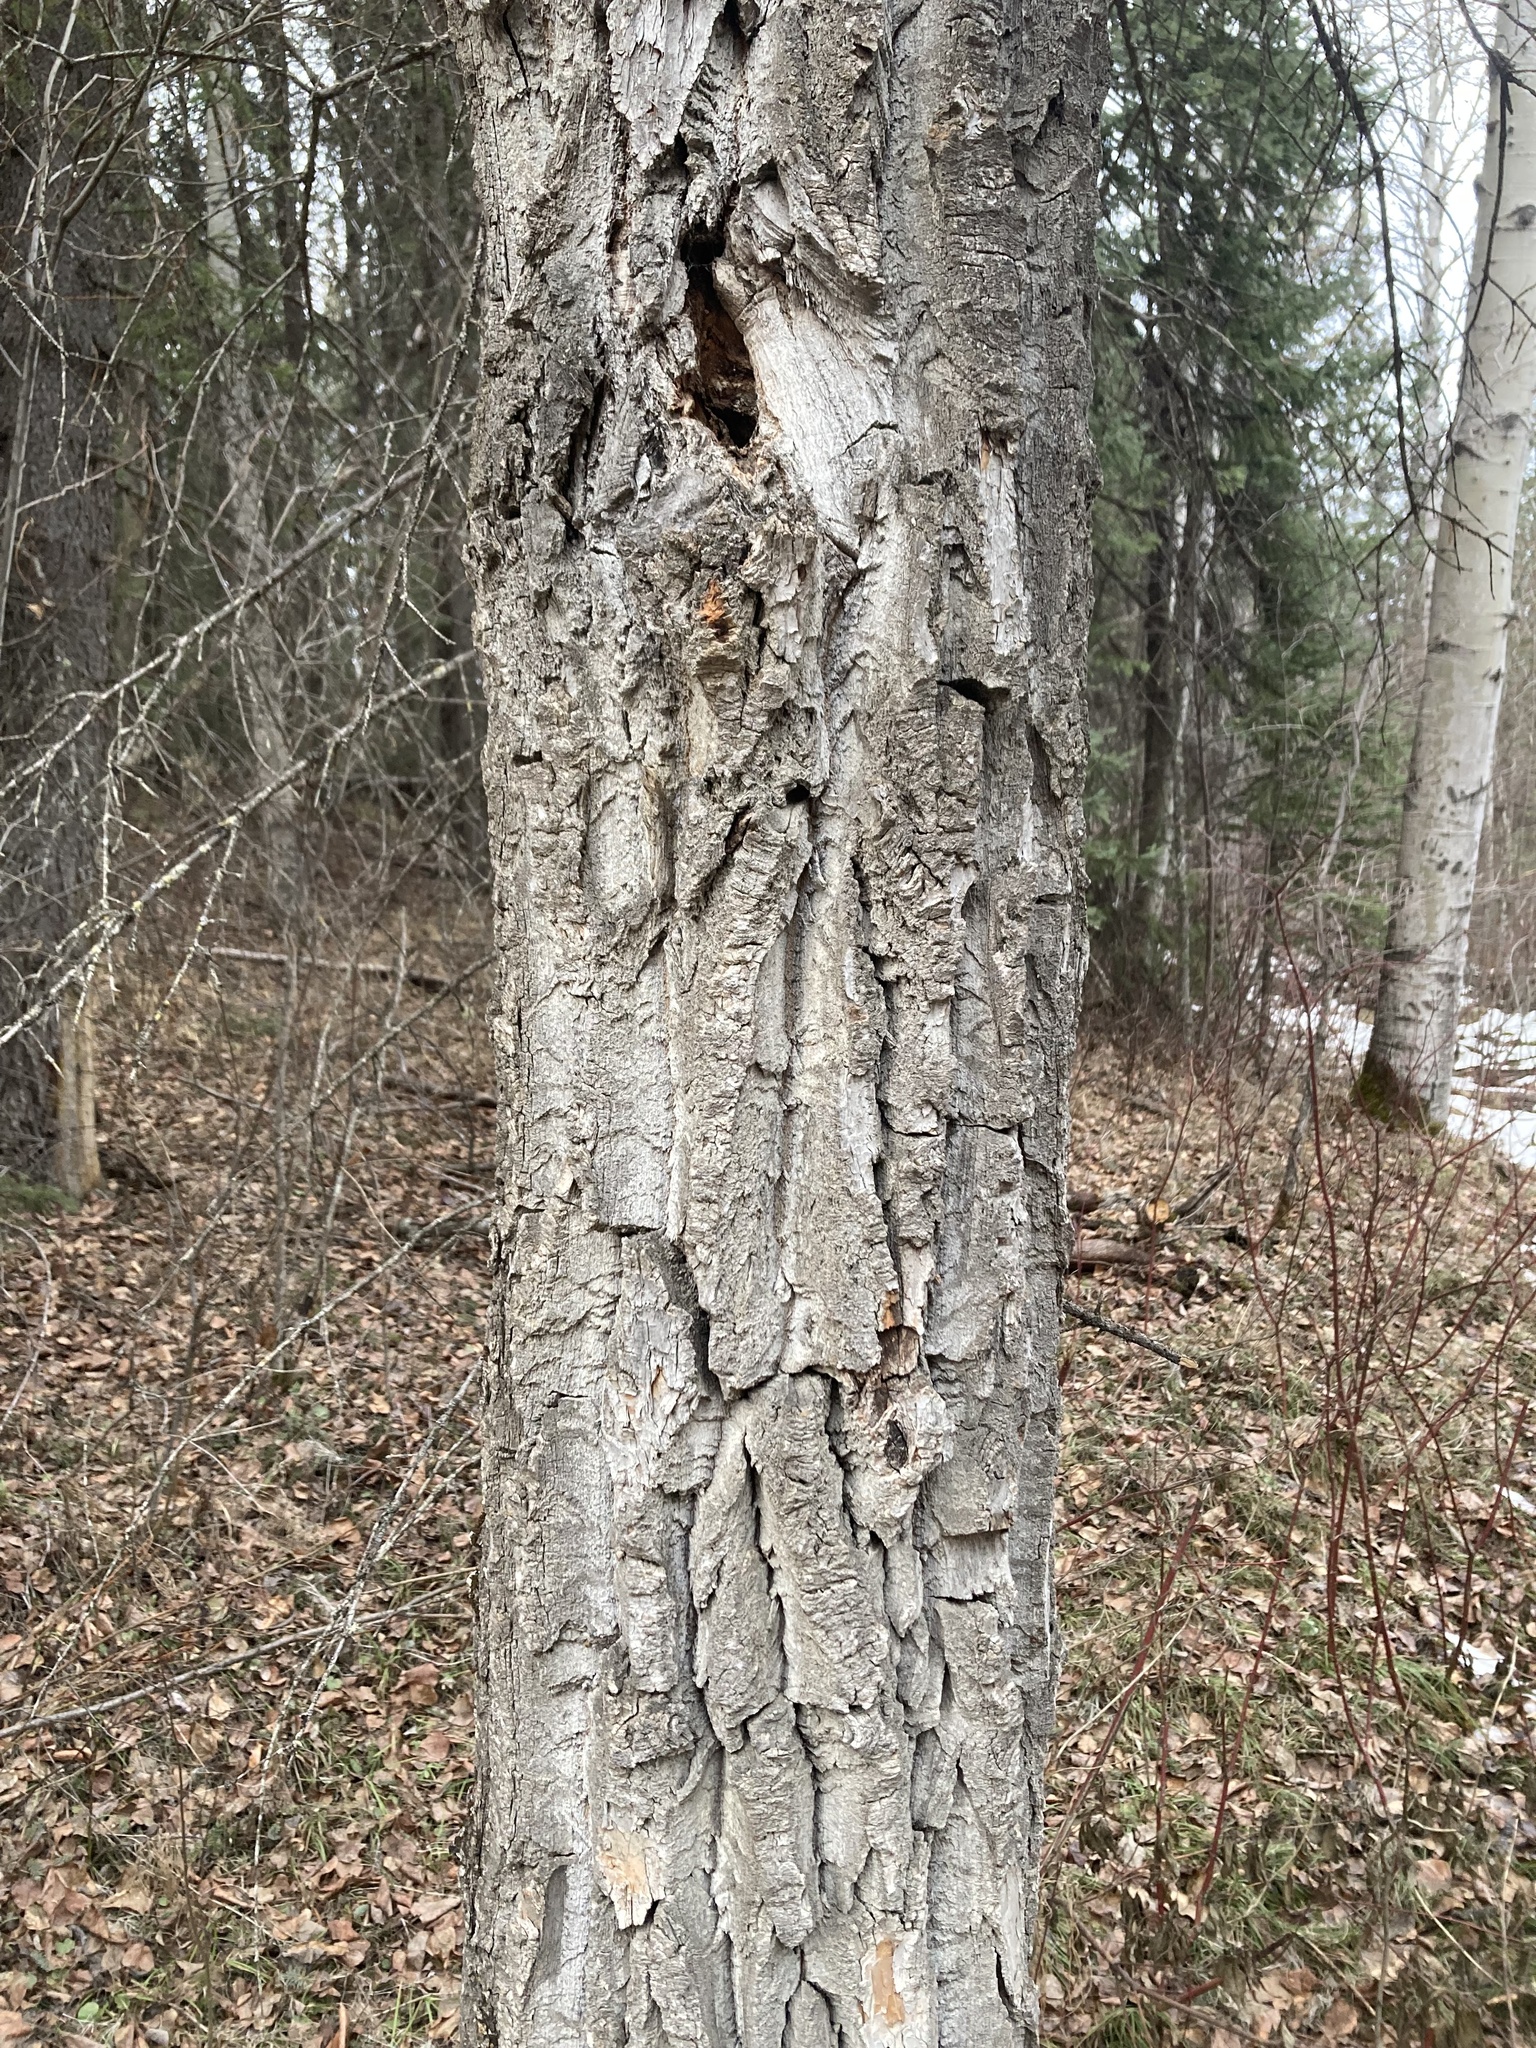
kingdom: Plantae
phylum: Tracheophyta
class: Magnoliopsida
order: Malpighiales
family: Salicaceae
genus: Populus
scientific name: Populus balsamifera
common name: Balsam poplar
